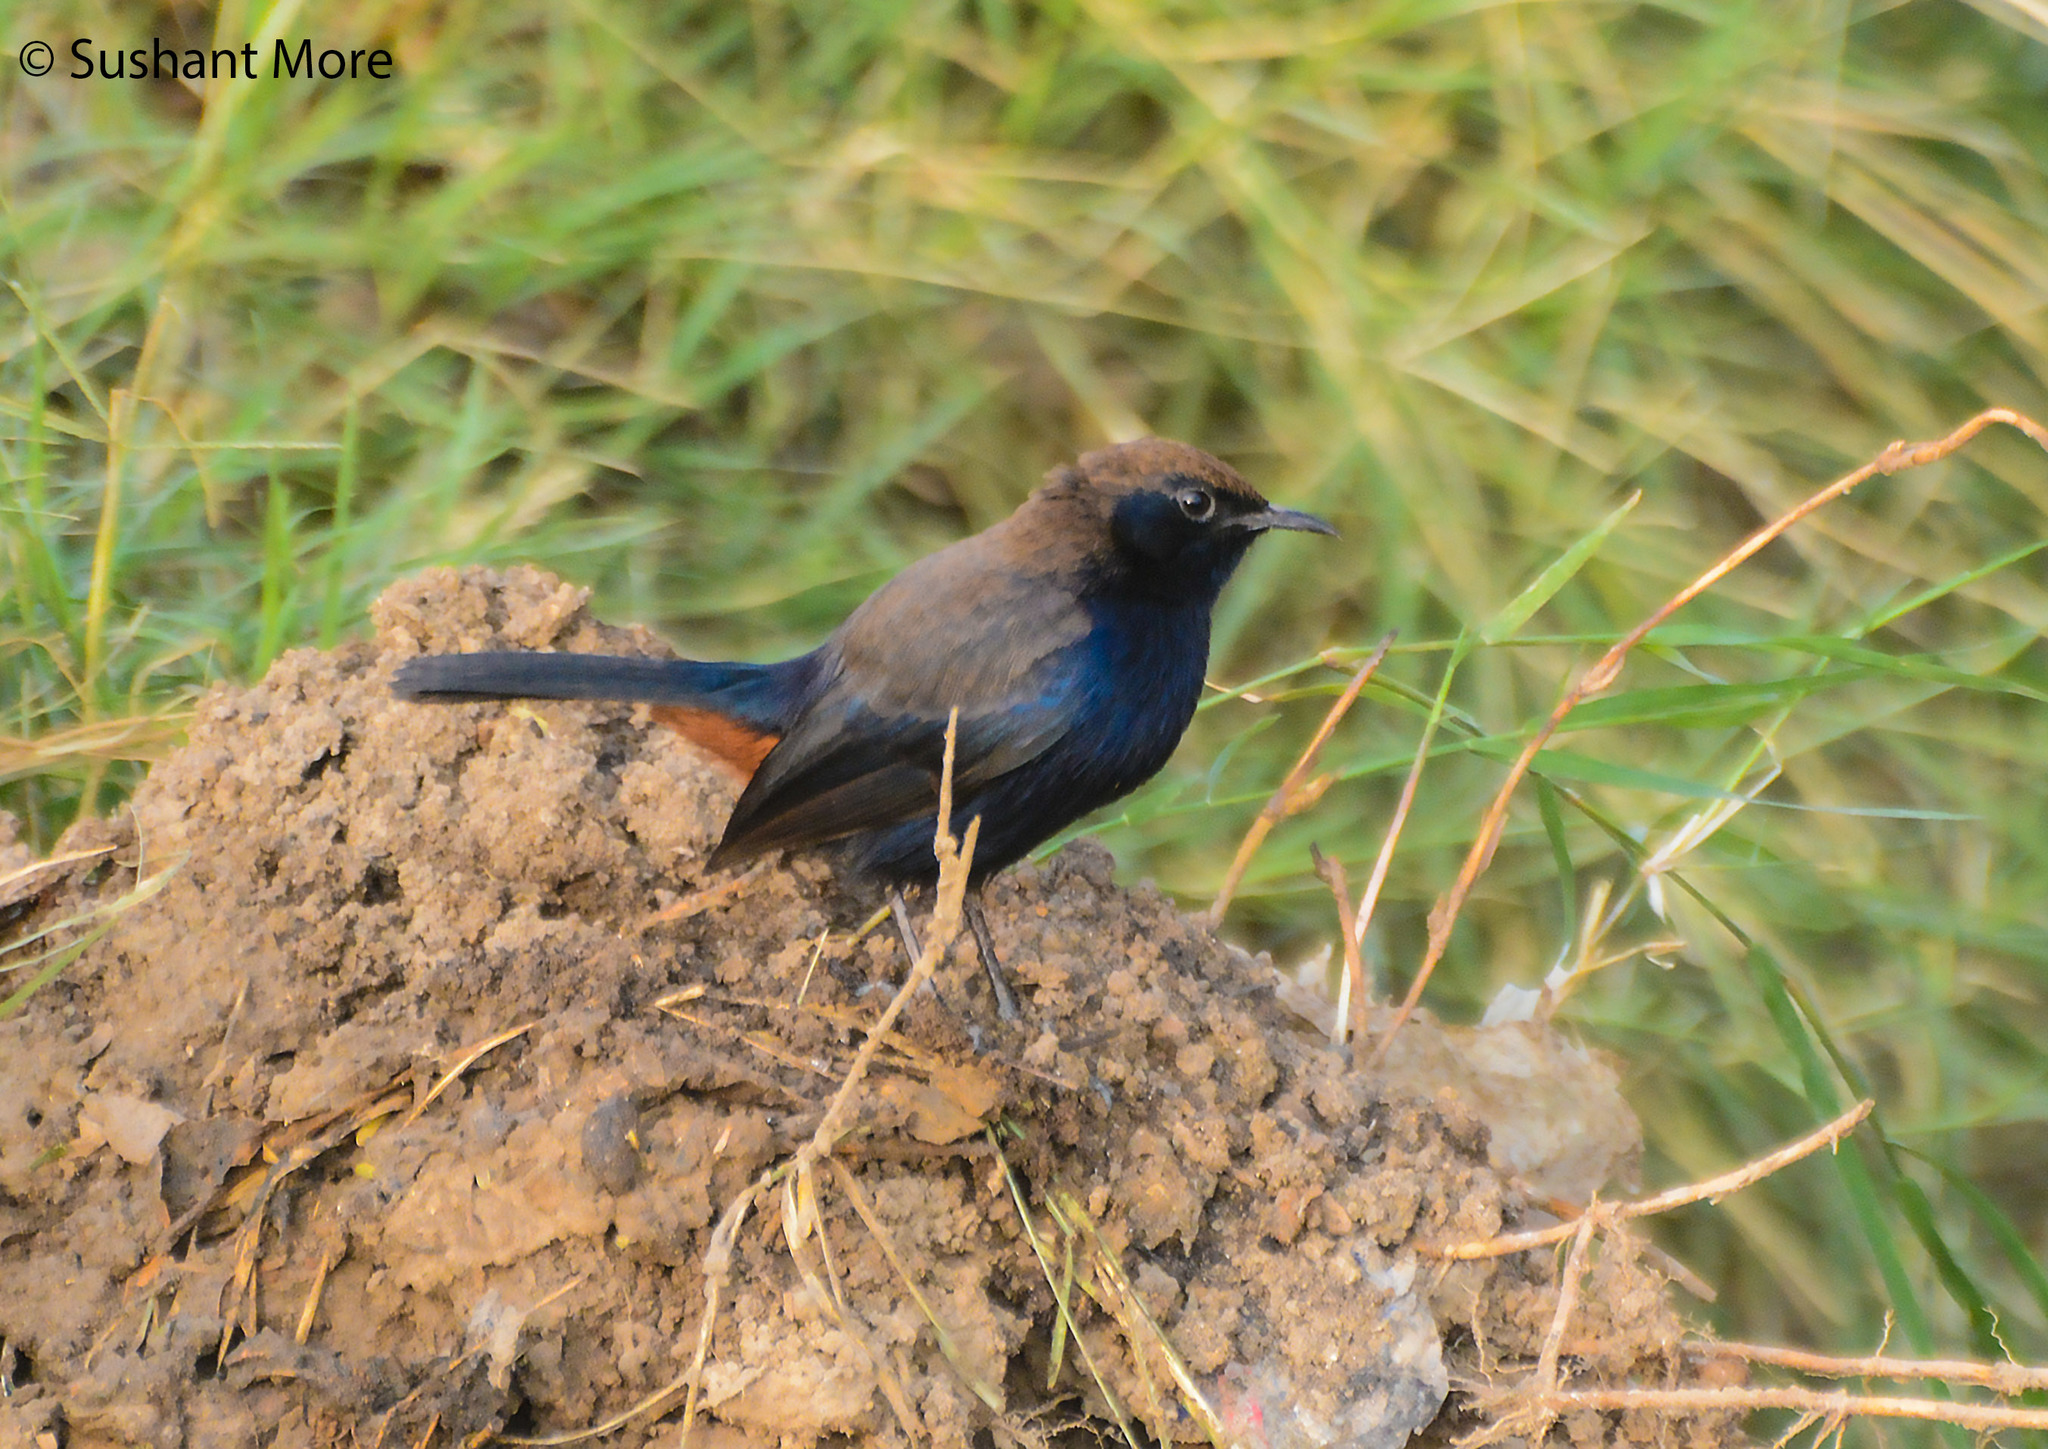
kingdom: Animalia
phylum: Chordata
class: Aves
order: Passeriformes
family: Muscicapidae
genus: Saxicoloides
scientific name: Saxicoloides fulicatus
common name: Indian robin
